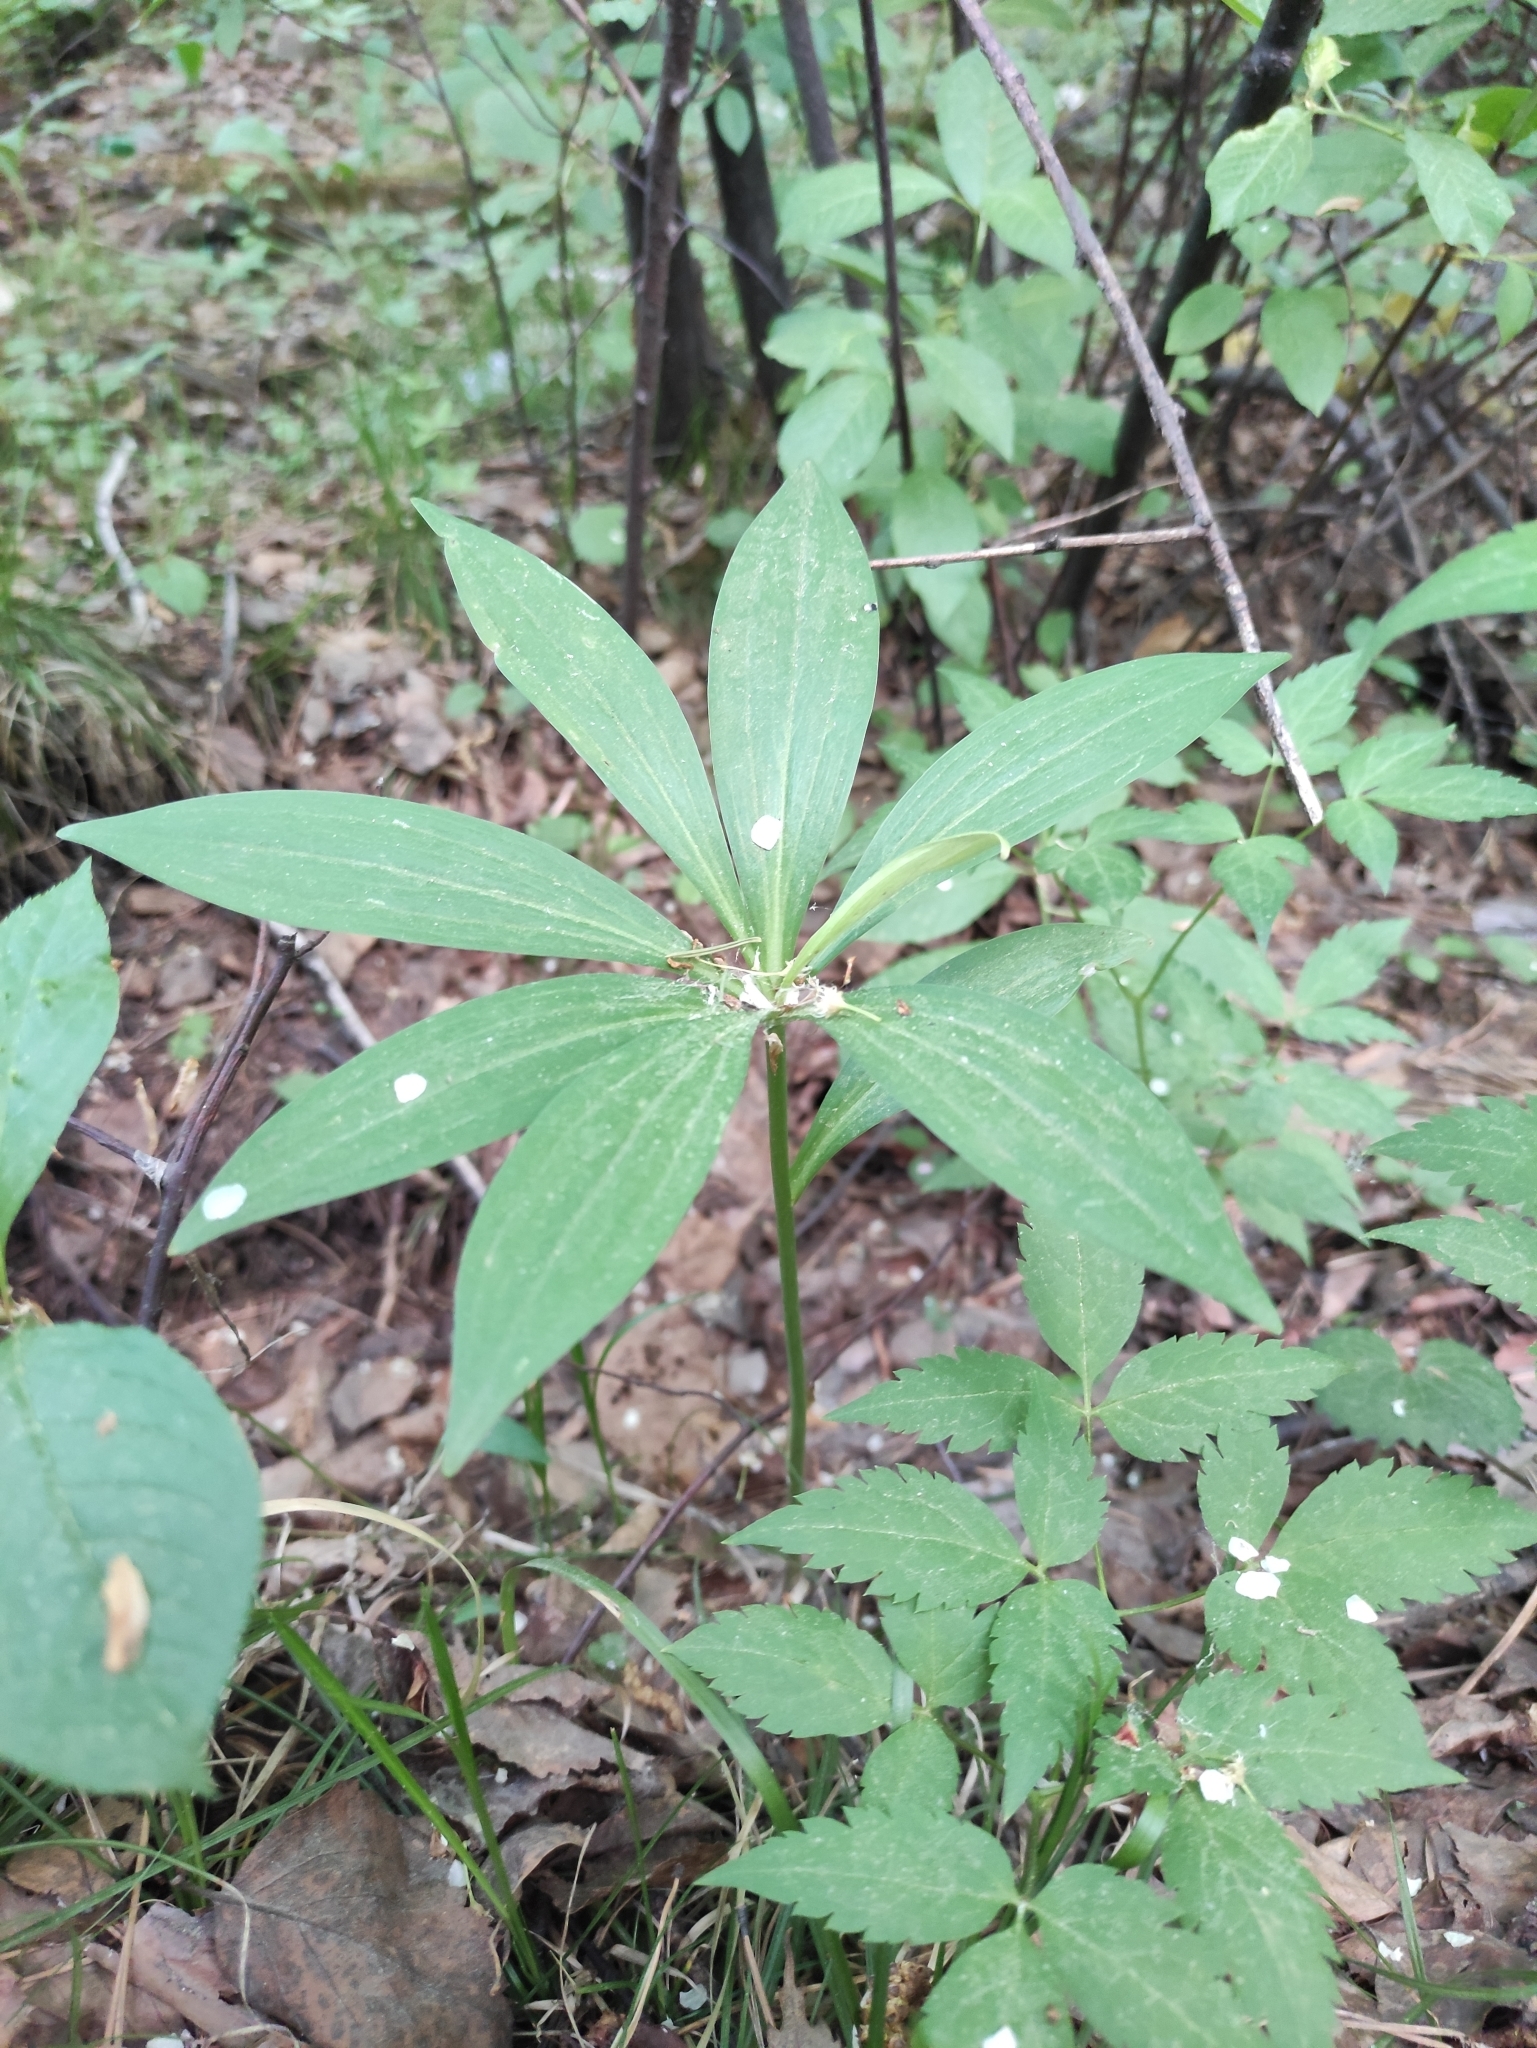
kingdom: Plantae
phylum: Tracheophyta
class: Liliopsida
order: Liliales
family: Liliaceae
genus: Lilium
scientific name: Lilium martagon
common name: Martagon lily
